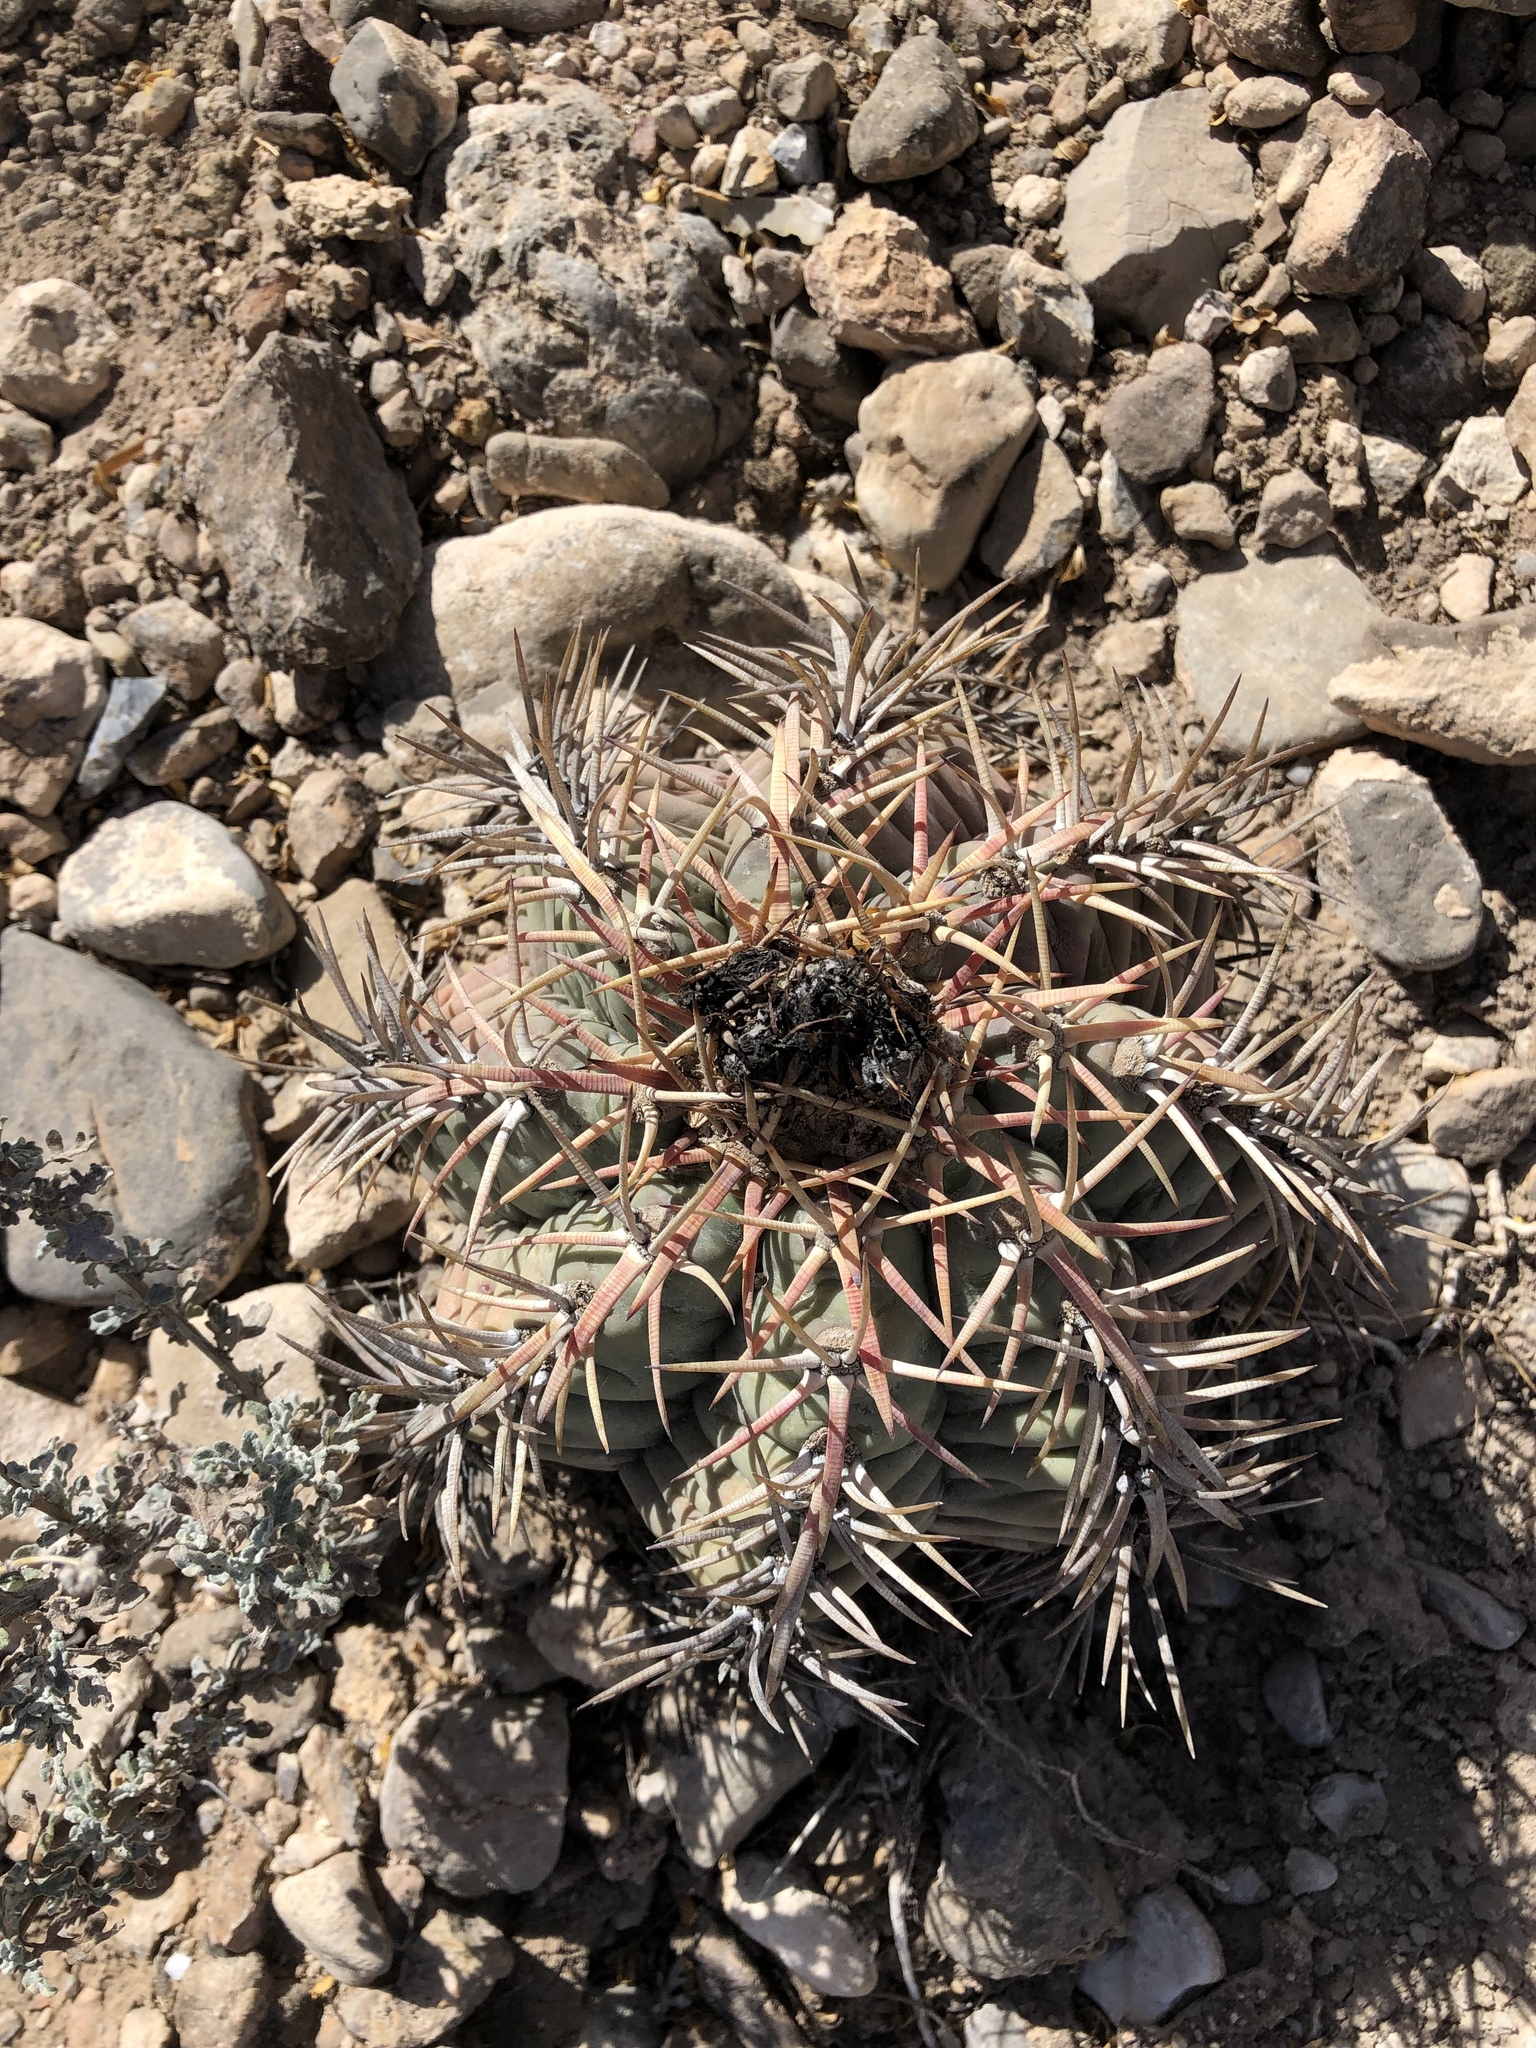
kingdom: Plantae
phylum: Tracheophyta
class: Magnoliopsida
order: Caryophyllales
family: Cactaceae
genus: Echinocactus
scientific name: Echinocactus horizonthalonius
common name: Devilshead
